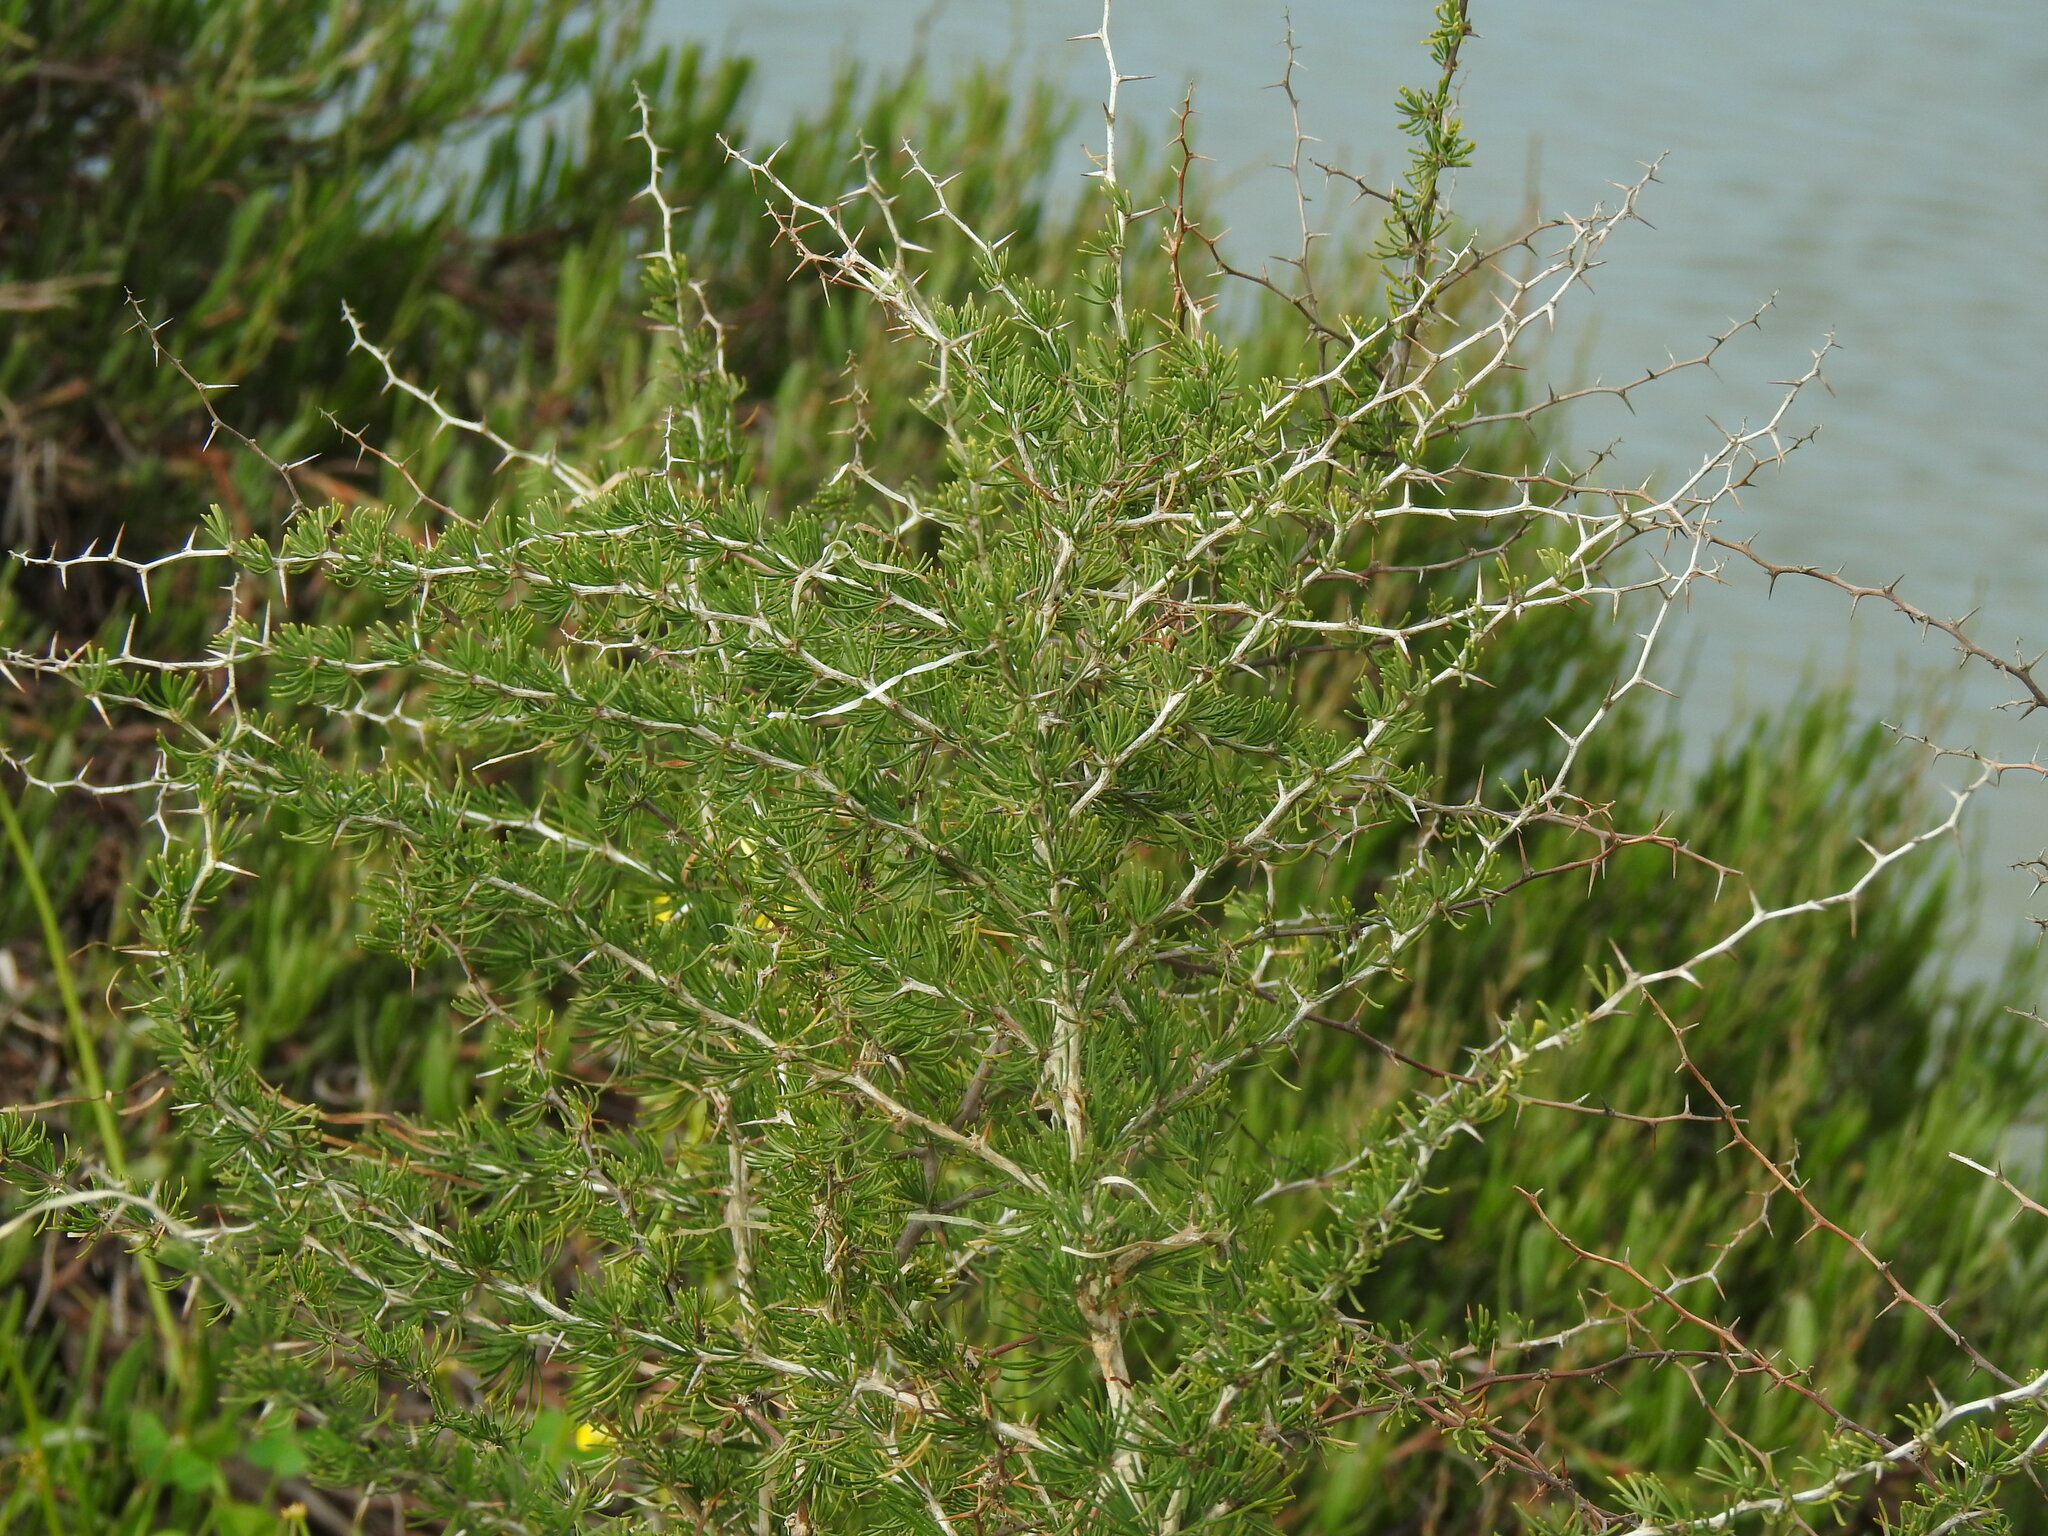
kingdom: Plantae
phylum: Tracheophyta
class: Liliopsida
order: Asparagales
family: Asparagaceae
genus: Asparagus
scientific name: Asparagus albus
